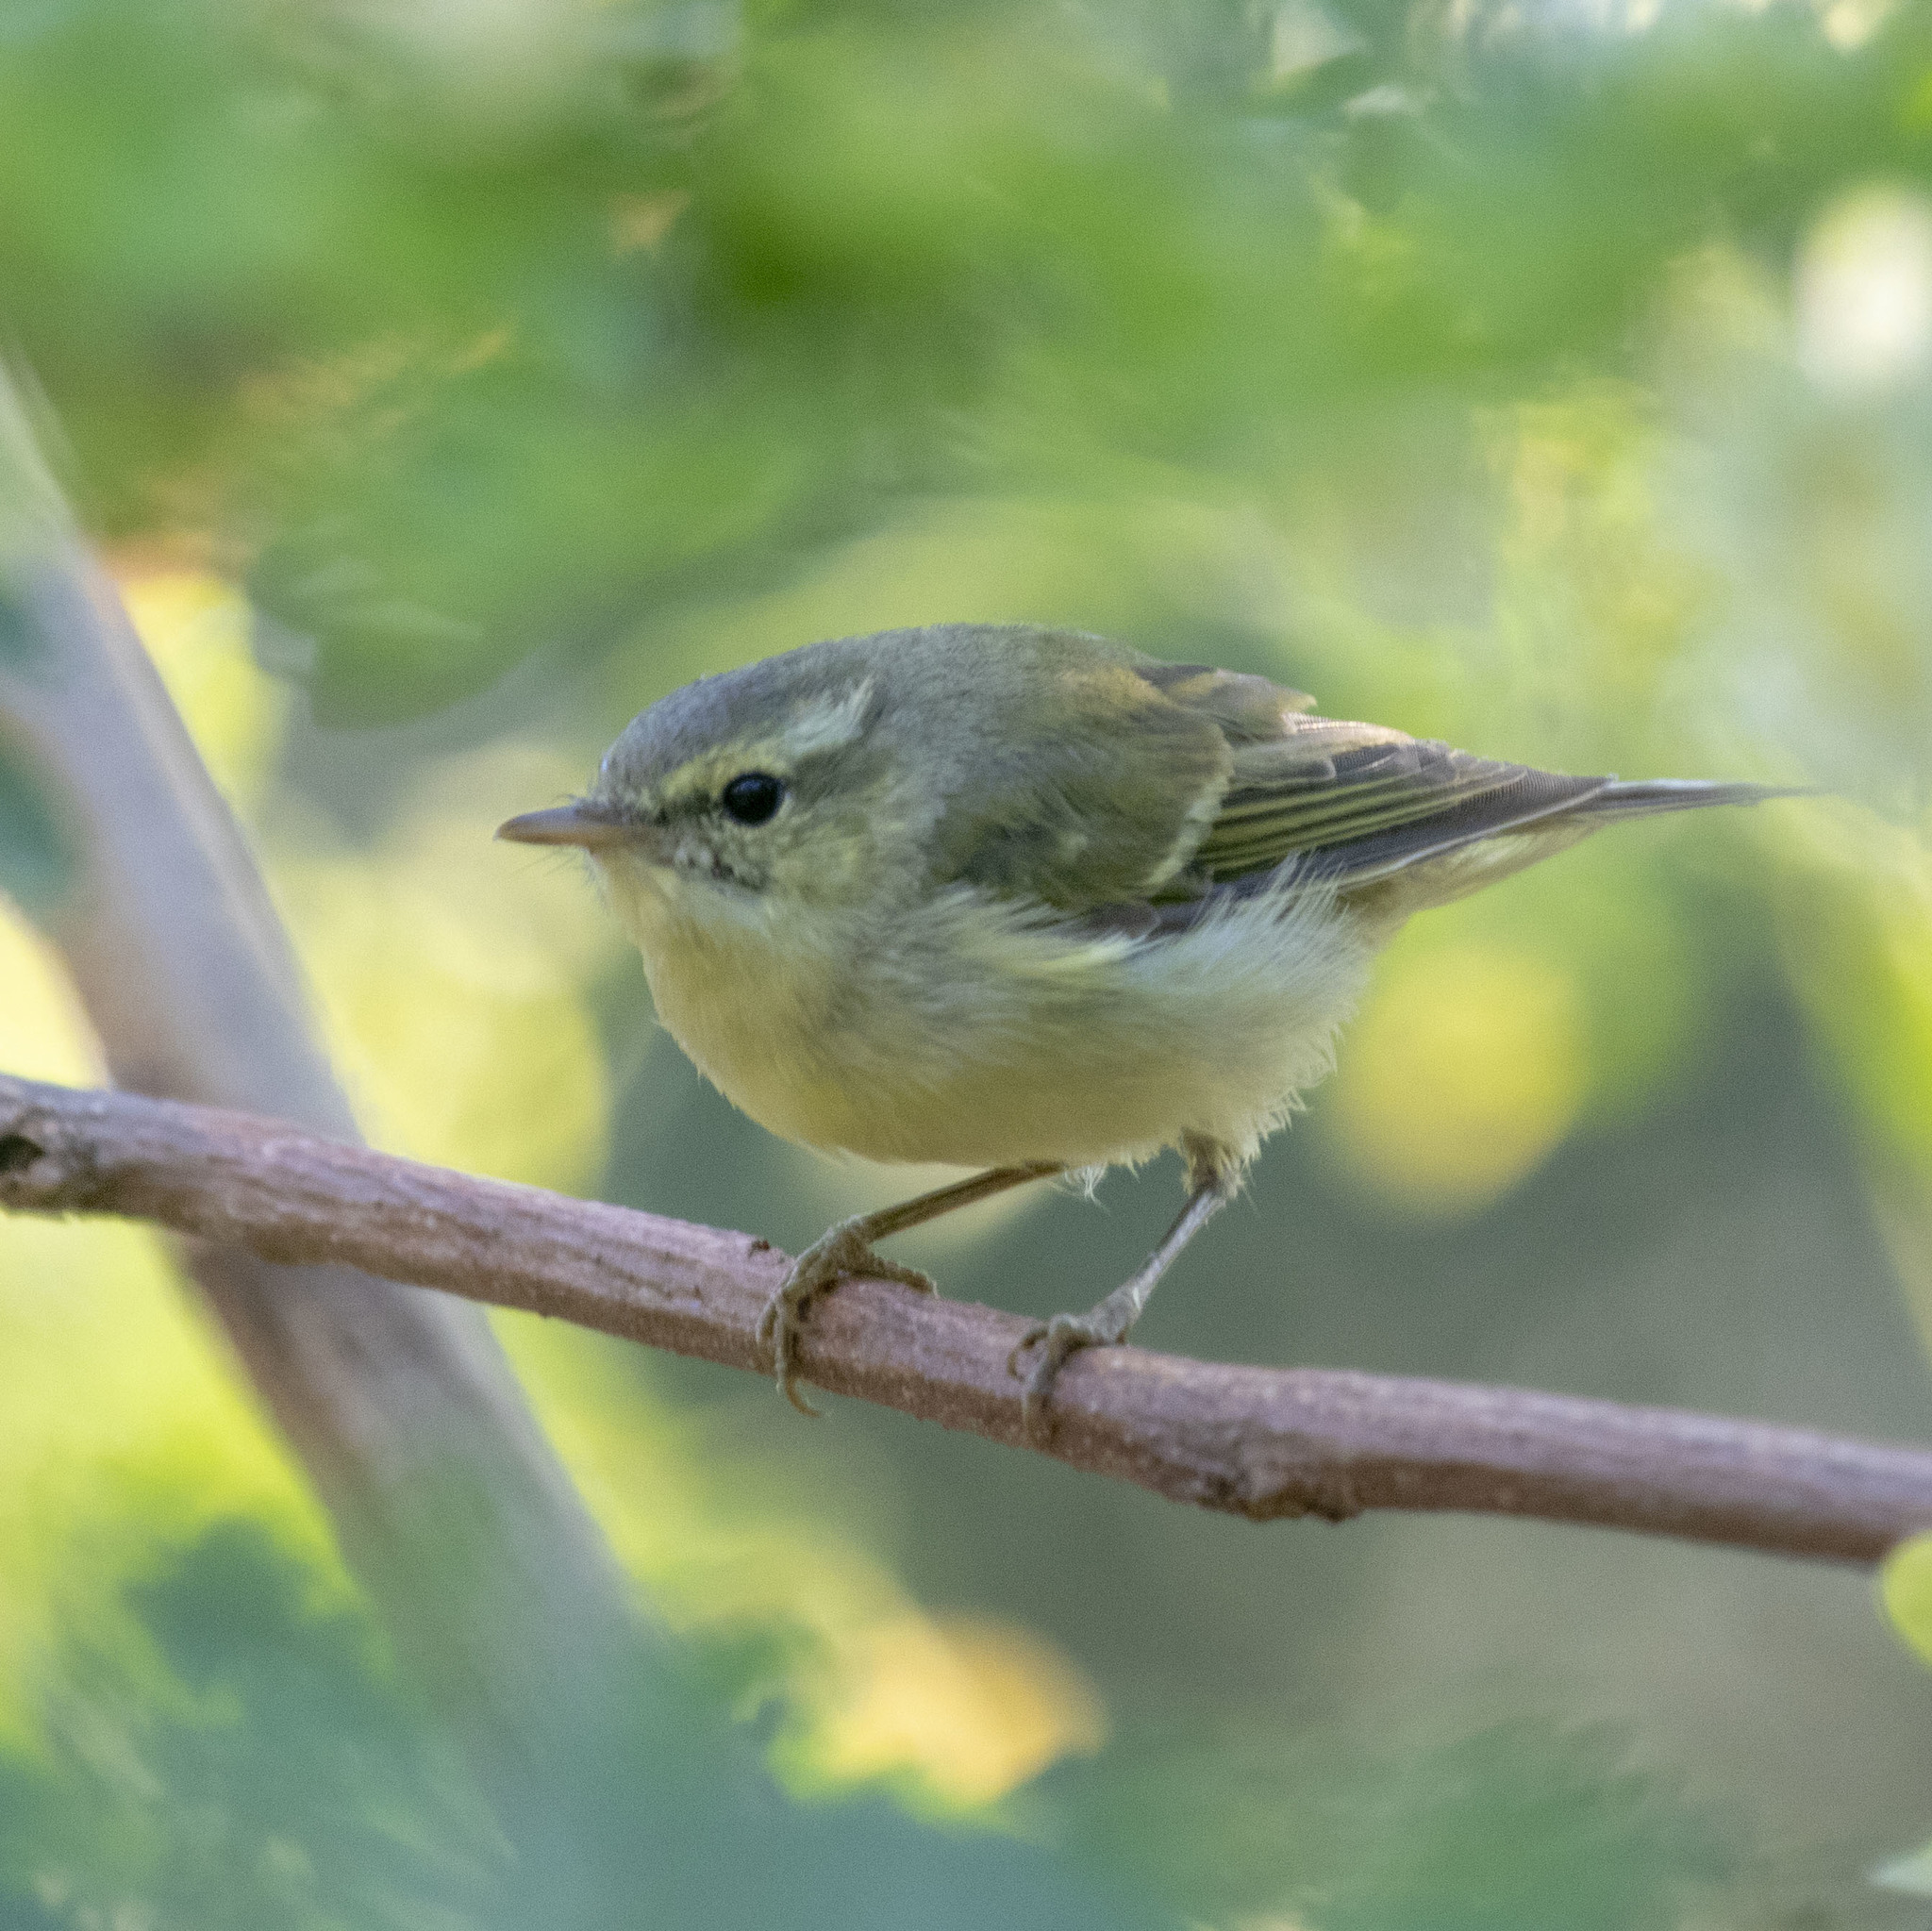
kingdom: Animalia
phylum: Chordata
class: Aves
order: Passeriformes
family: Phylloscopidae
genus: Phylloscopus
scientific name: Phylloscopus trochiloides
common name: Greenish warbler
